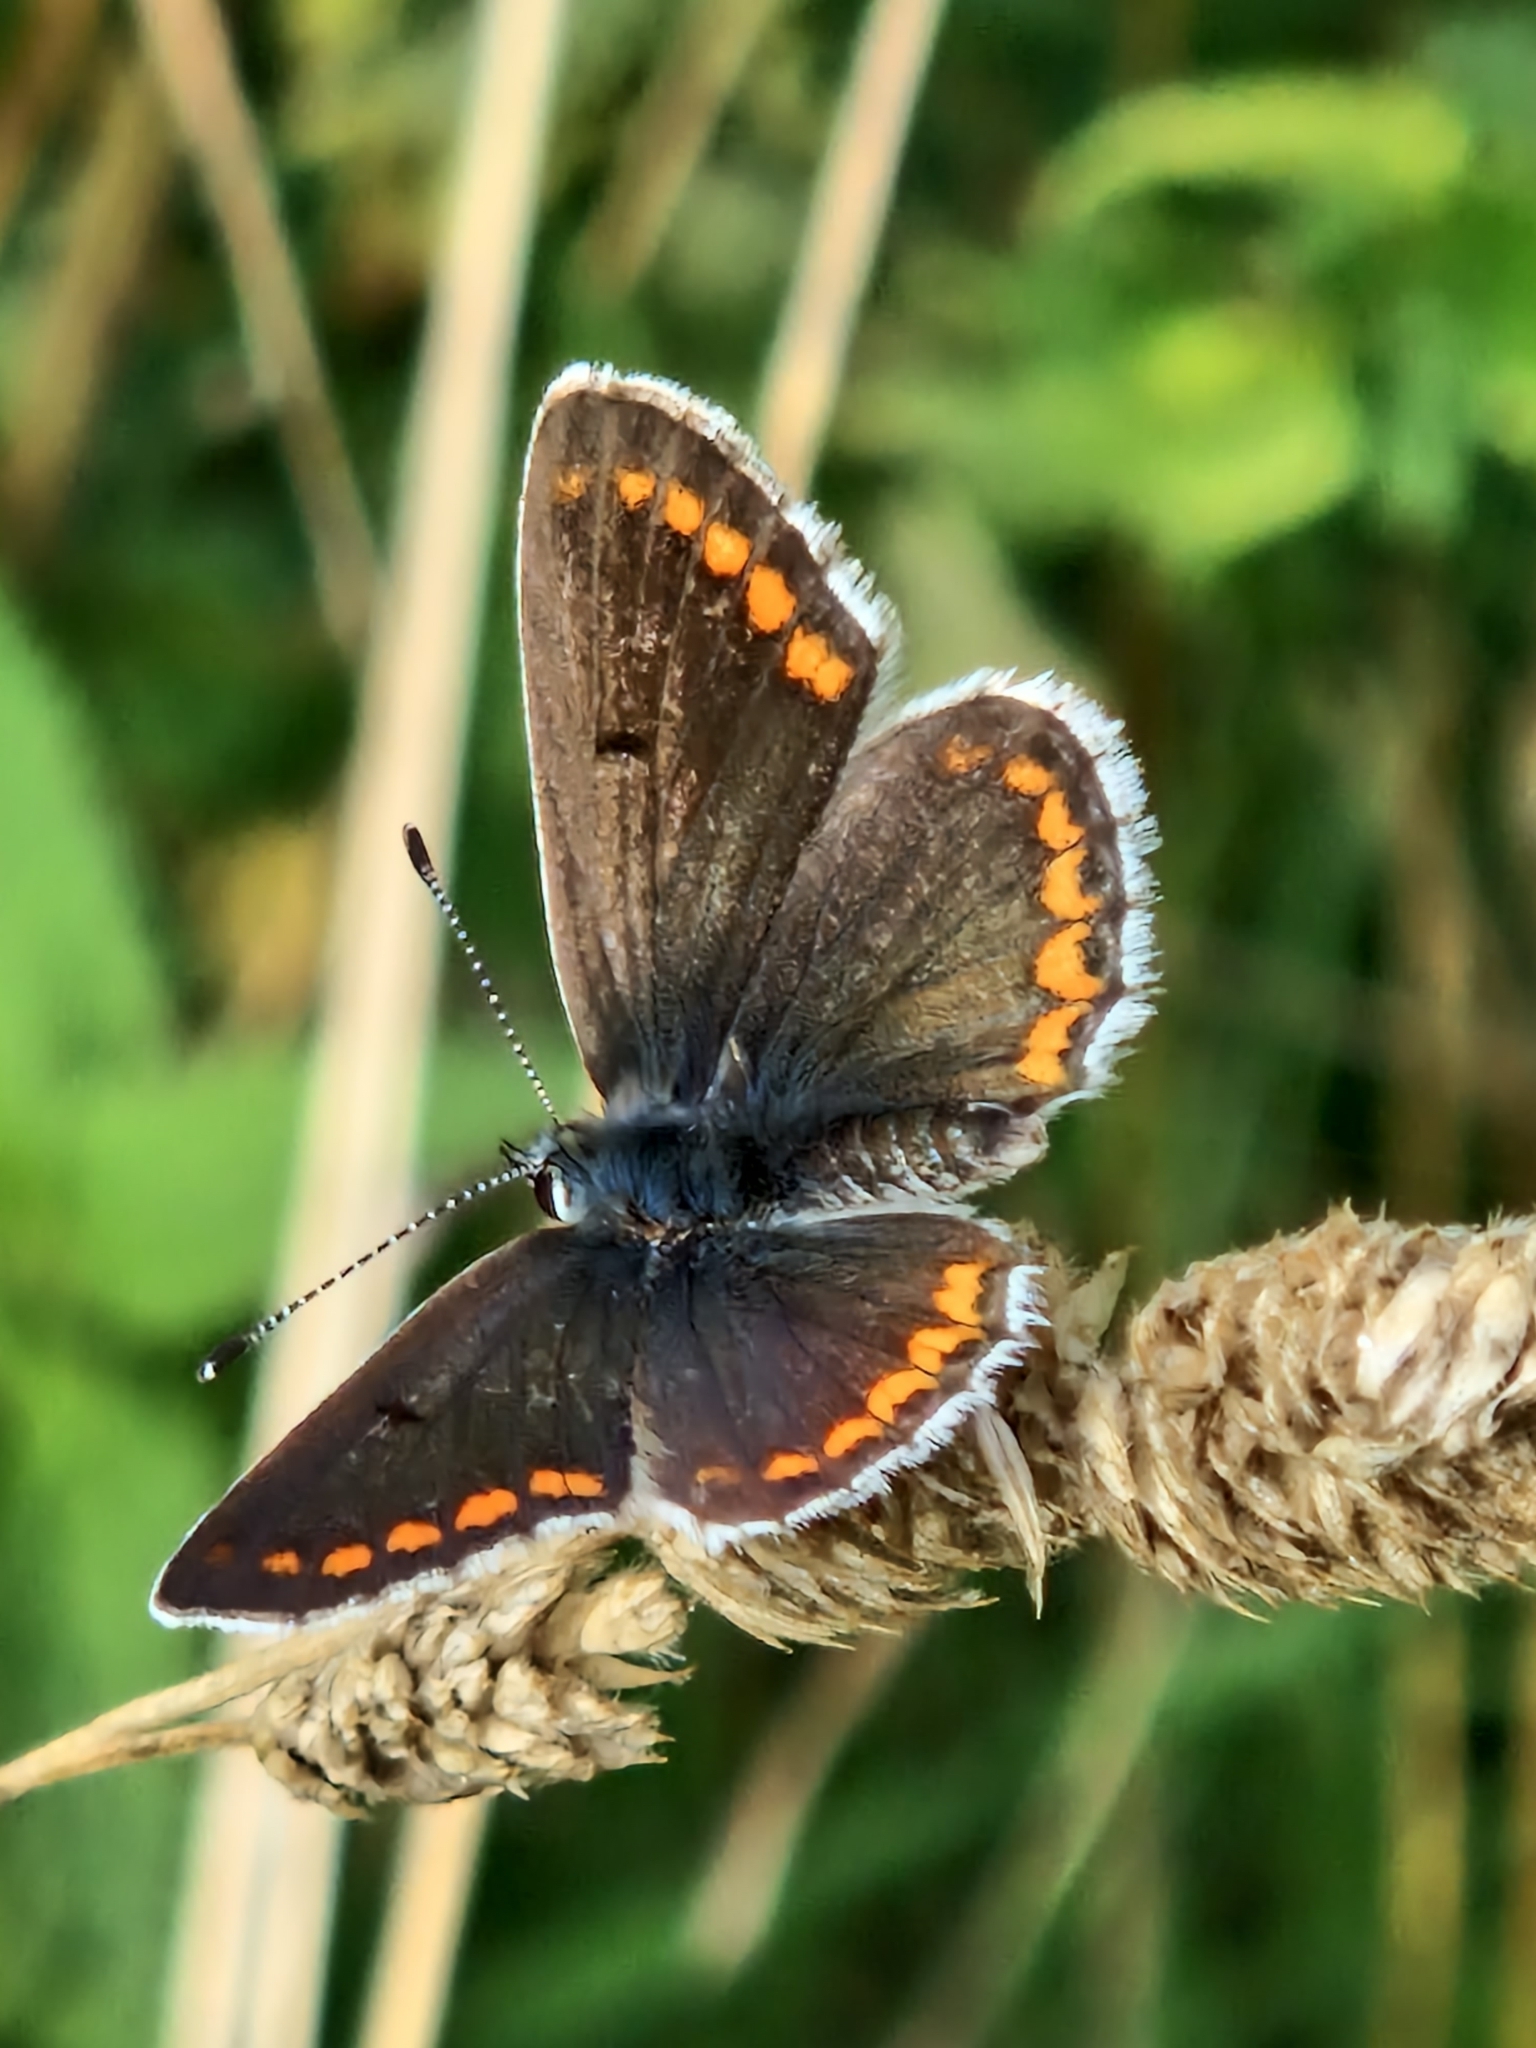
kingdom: Animalia
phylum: Arthropoda
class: Insecta
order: Lepidoptera
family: Lycaenidae
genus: Aricia
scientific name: Aricia agestis
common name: Brown argus
